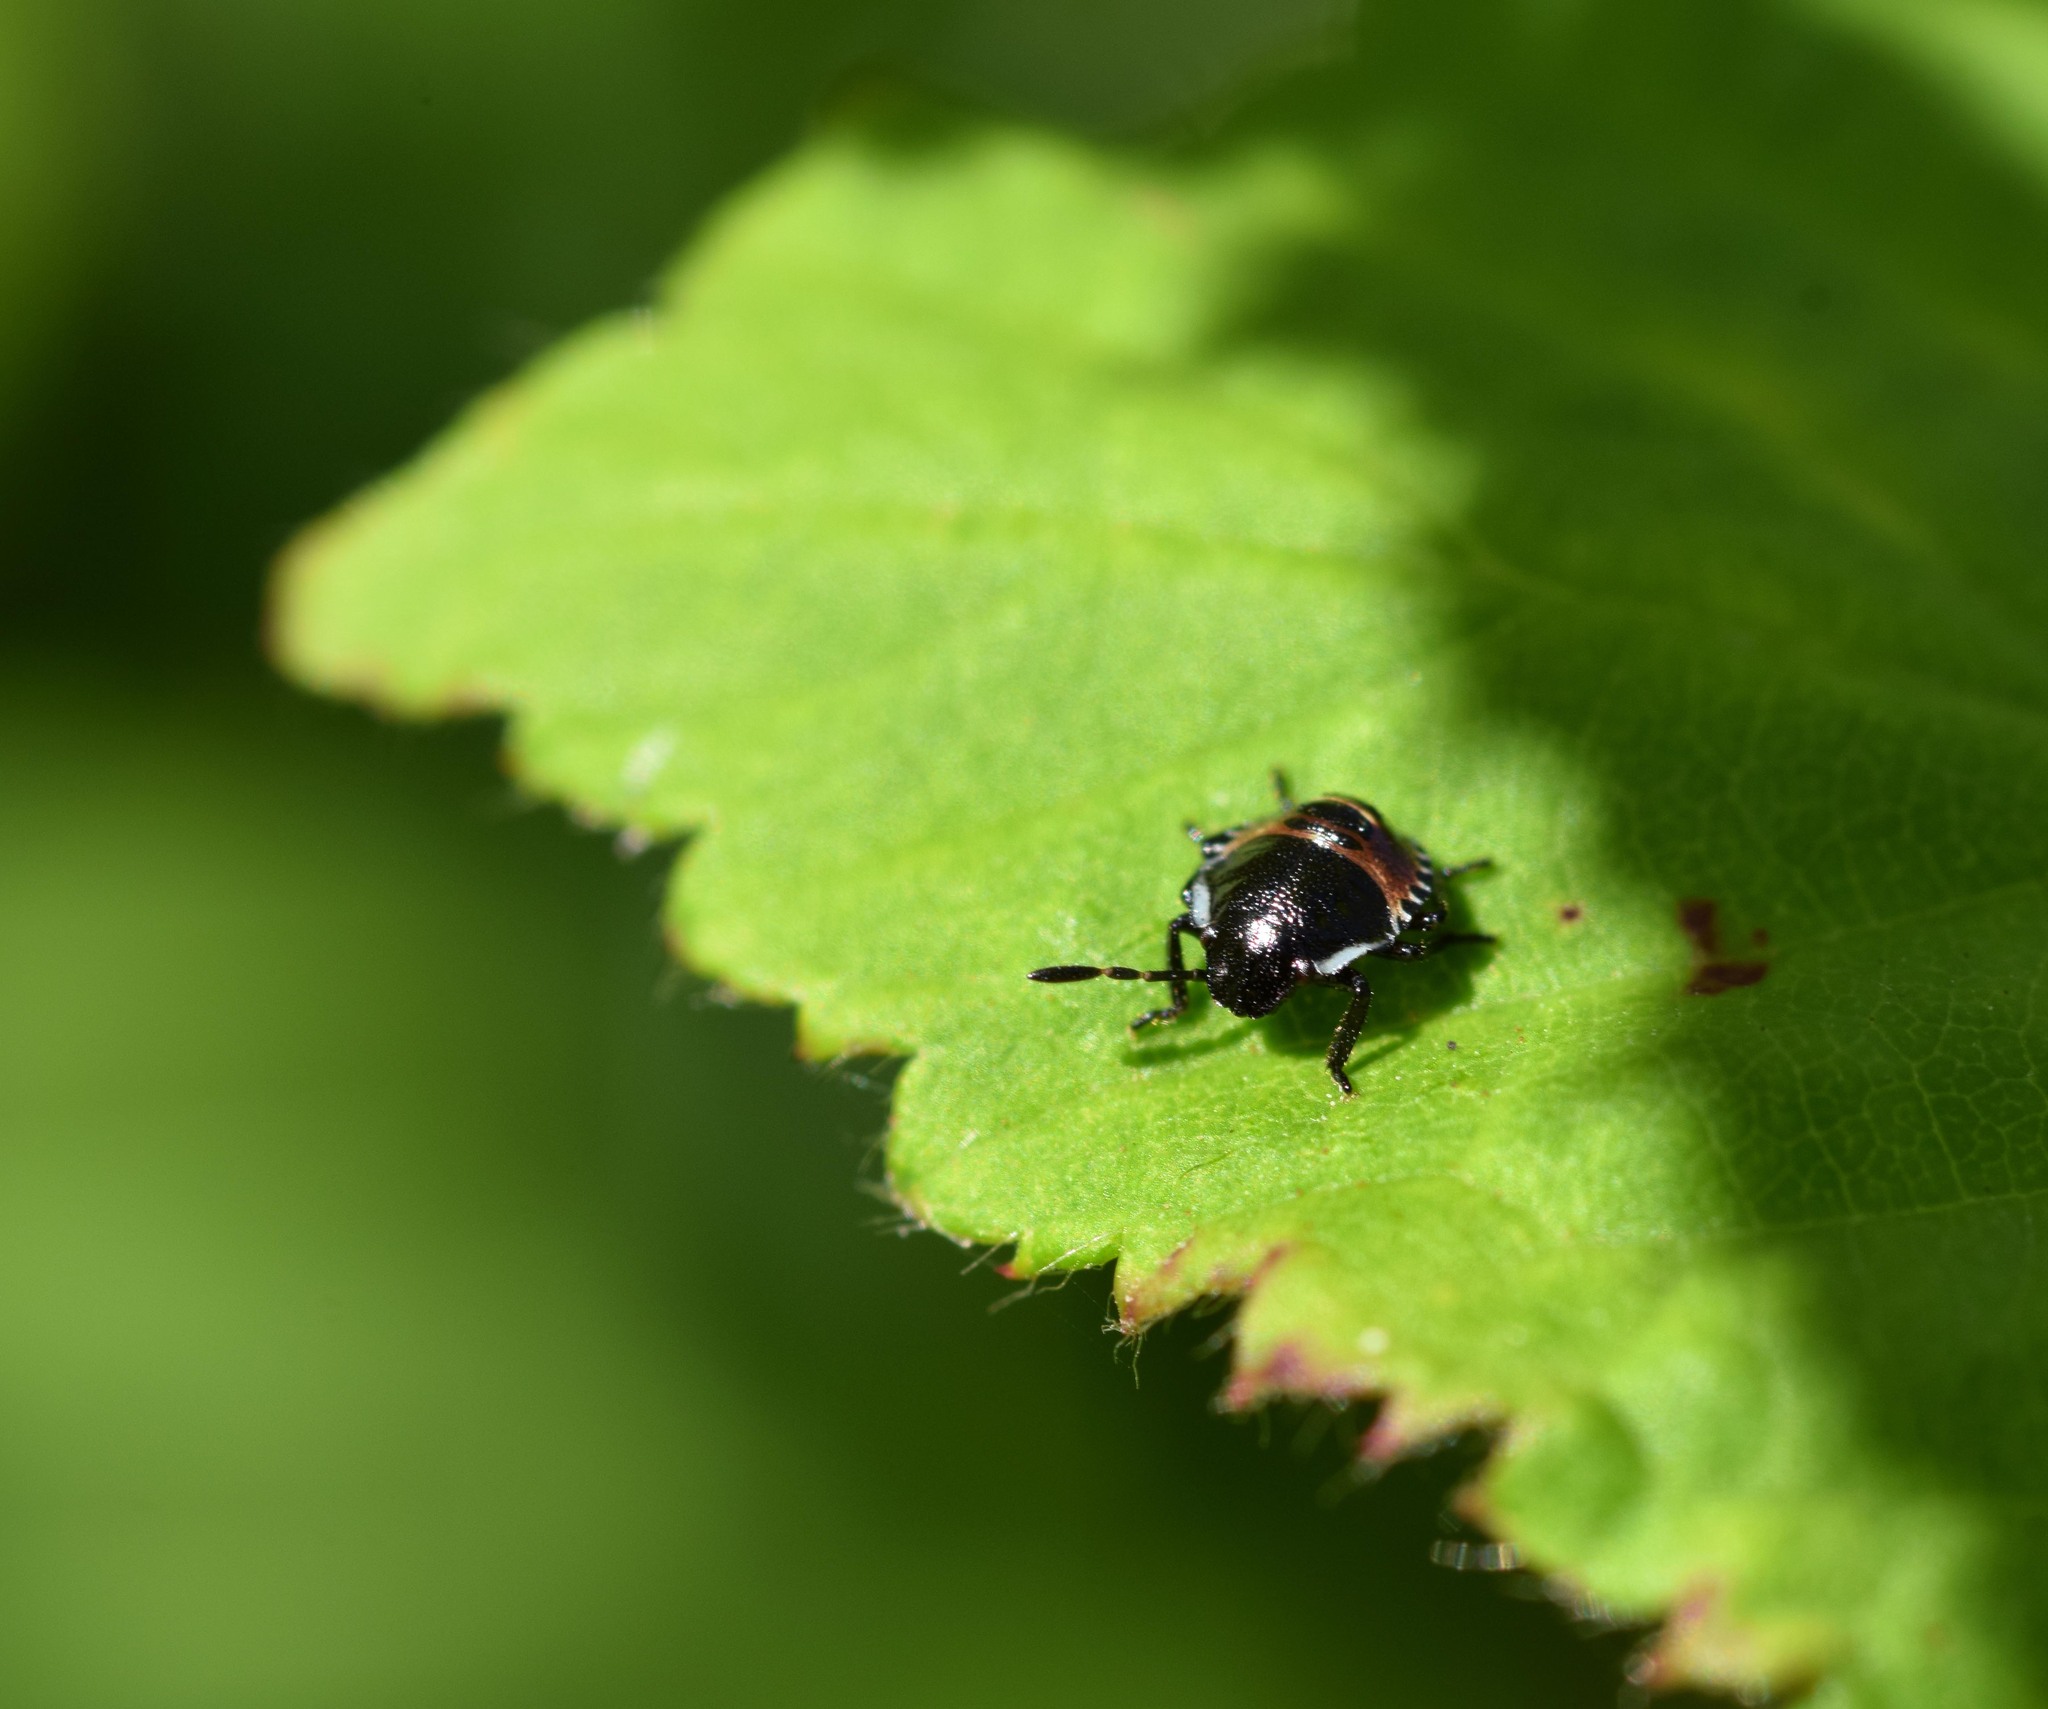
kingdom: Animalia
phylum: Arthropoda
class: Insecta
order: Hemiptera
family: Pentatomidae
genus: Palomena
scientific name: Palomena prasina
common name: Green shieldbug
